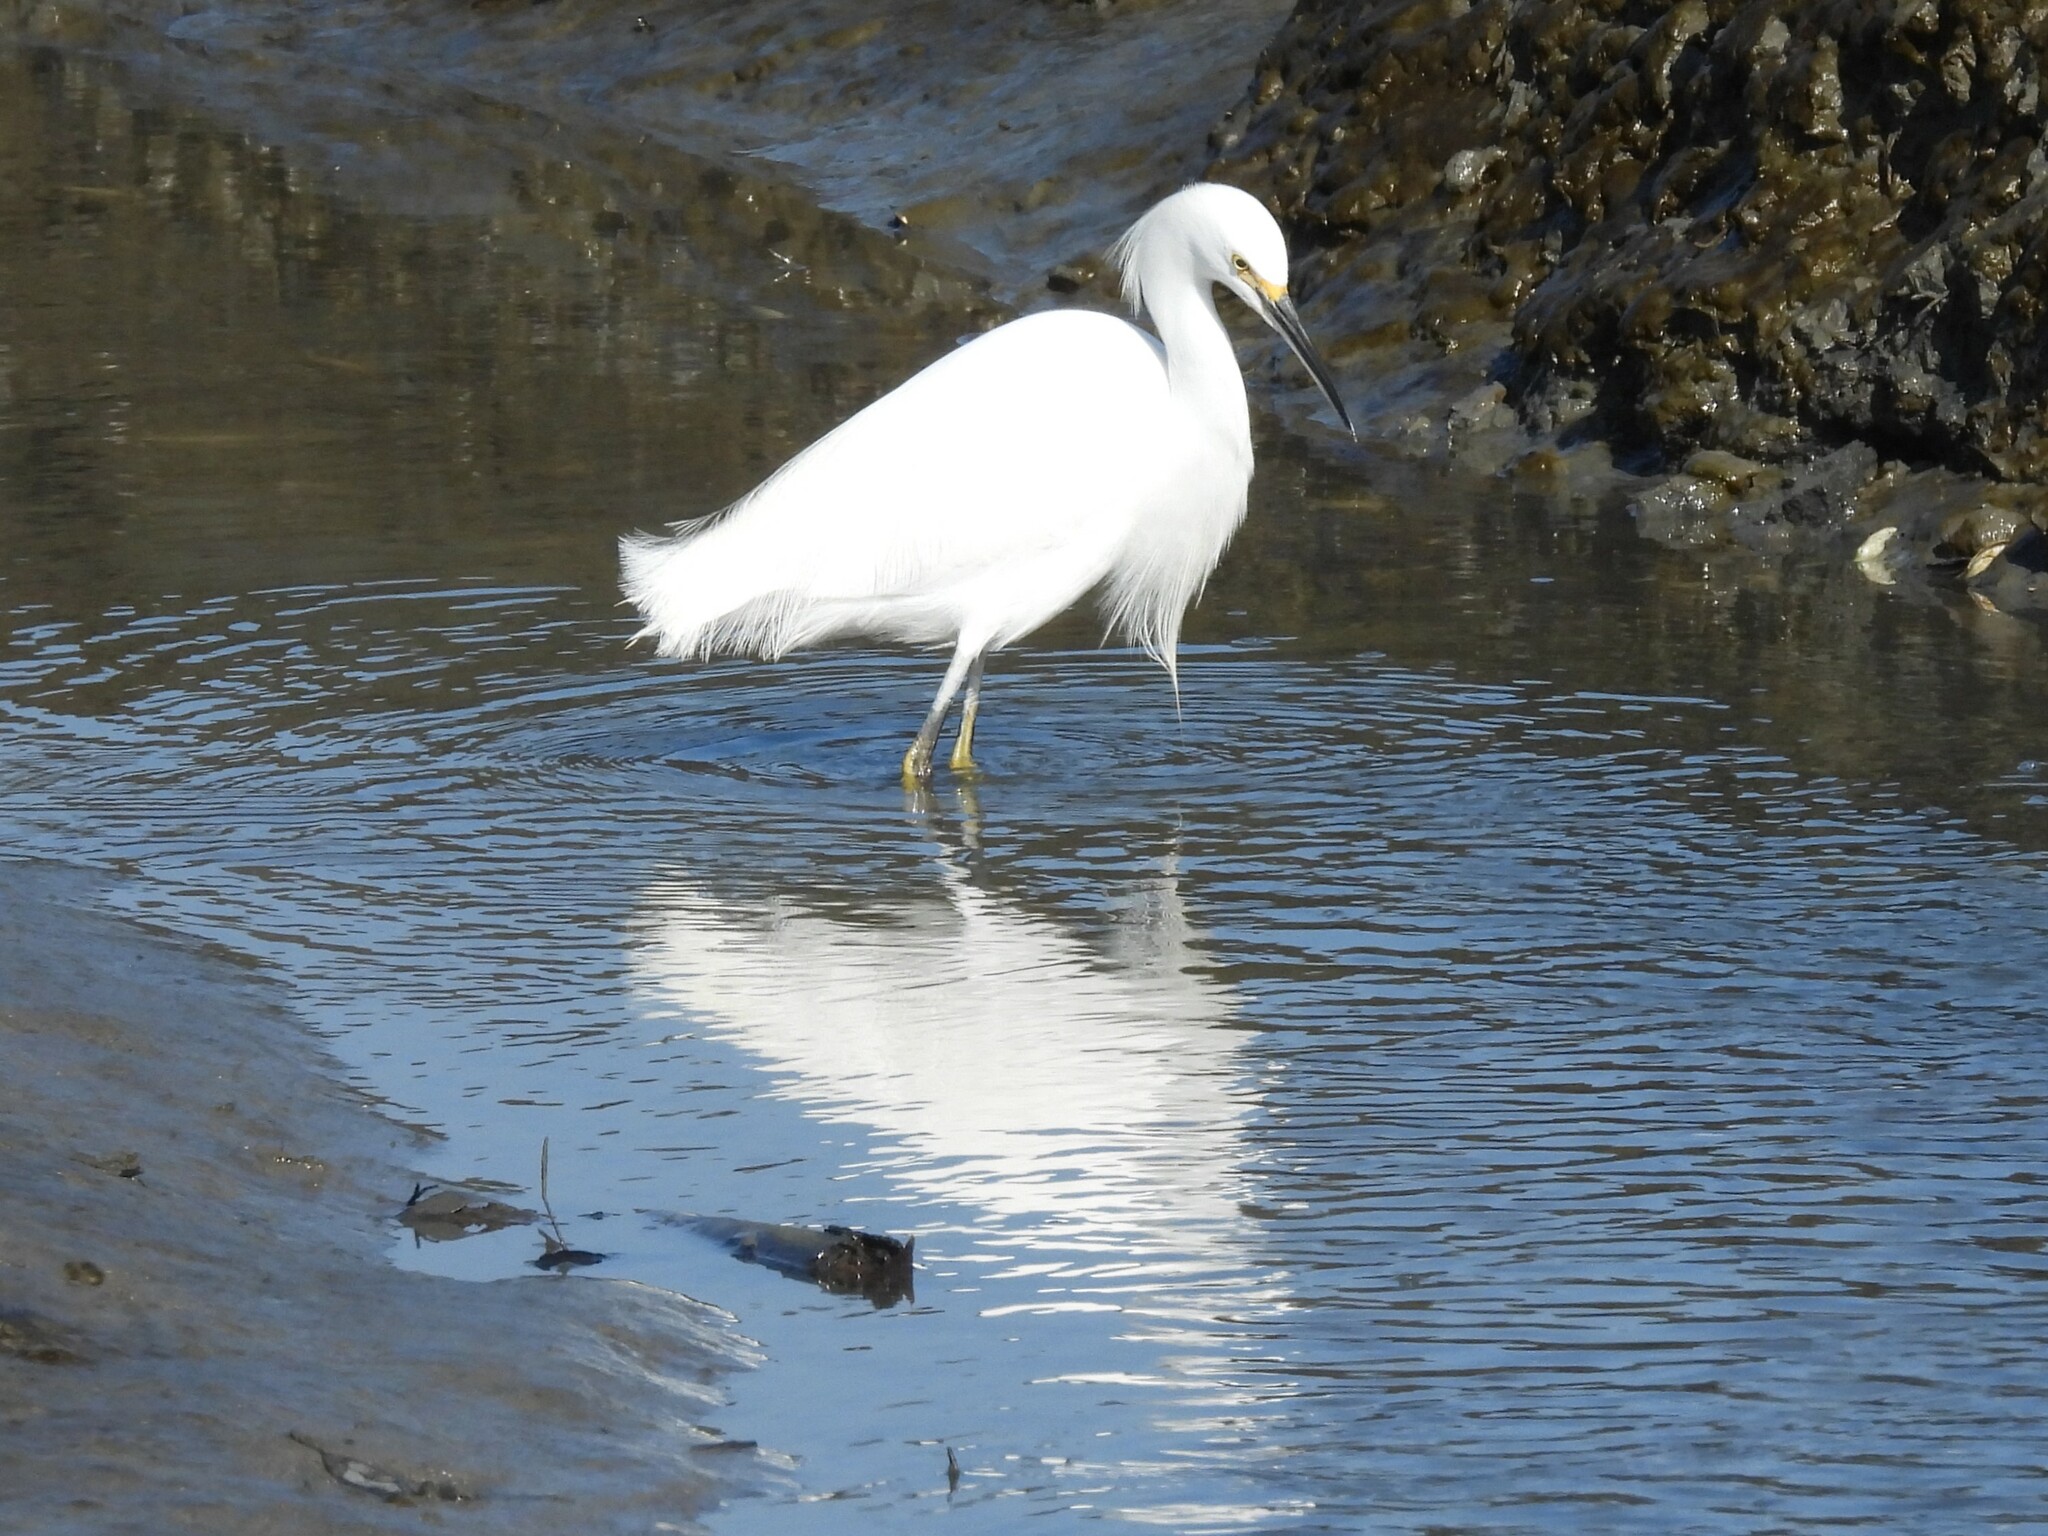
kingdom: Animalia
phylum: Chordata
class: Aves
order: Pelecaniformes
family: Ardeidae
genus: Egretta
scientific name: Egretta thula
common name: Snowy egret
